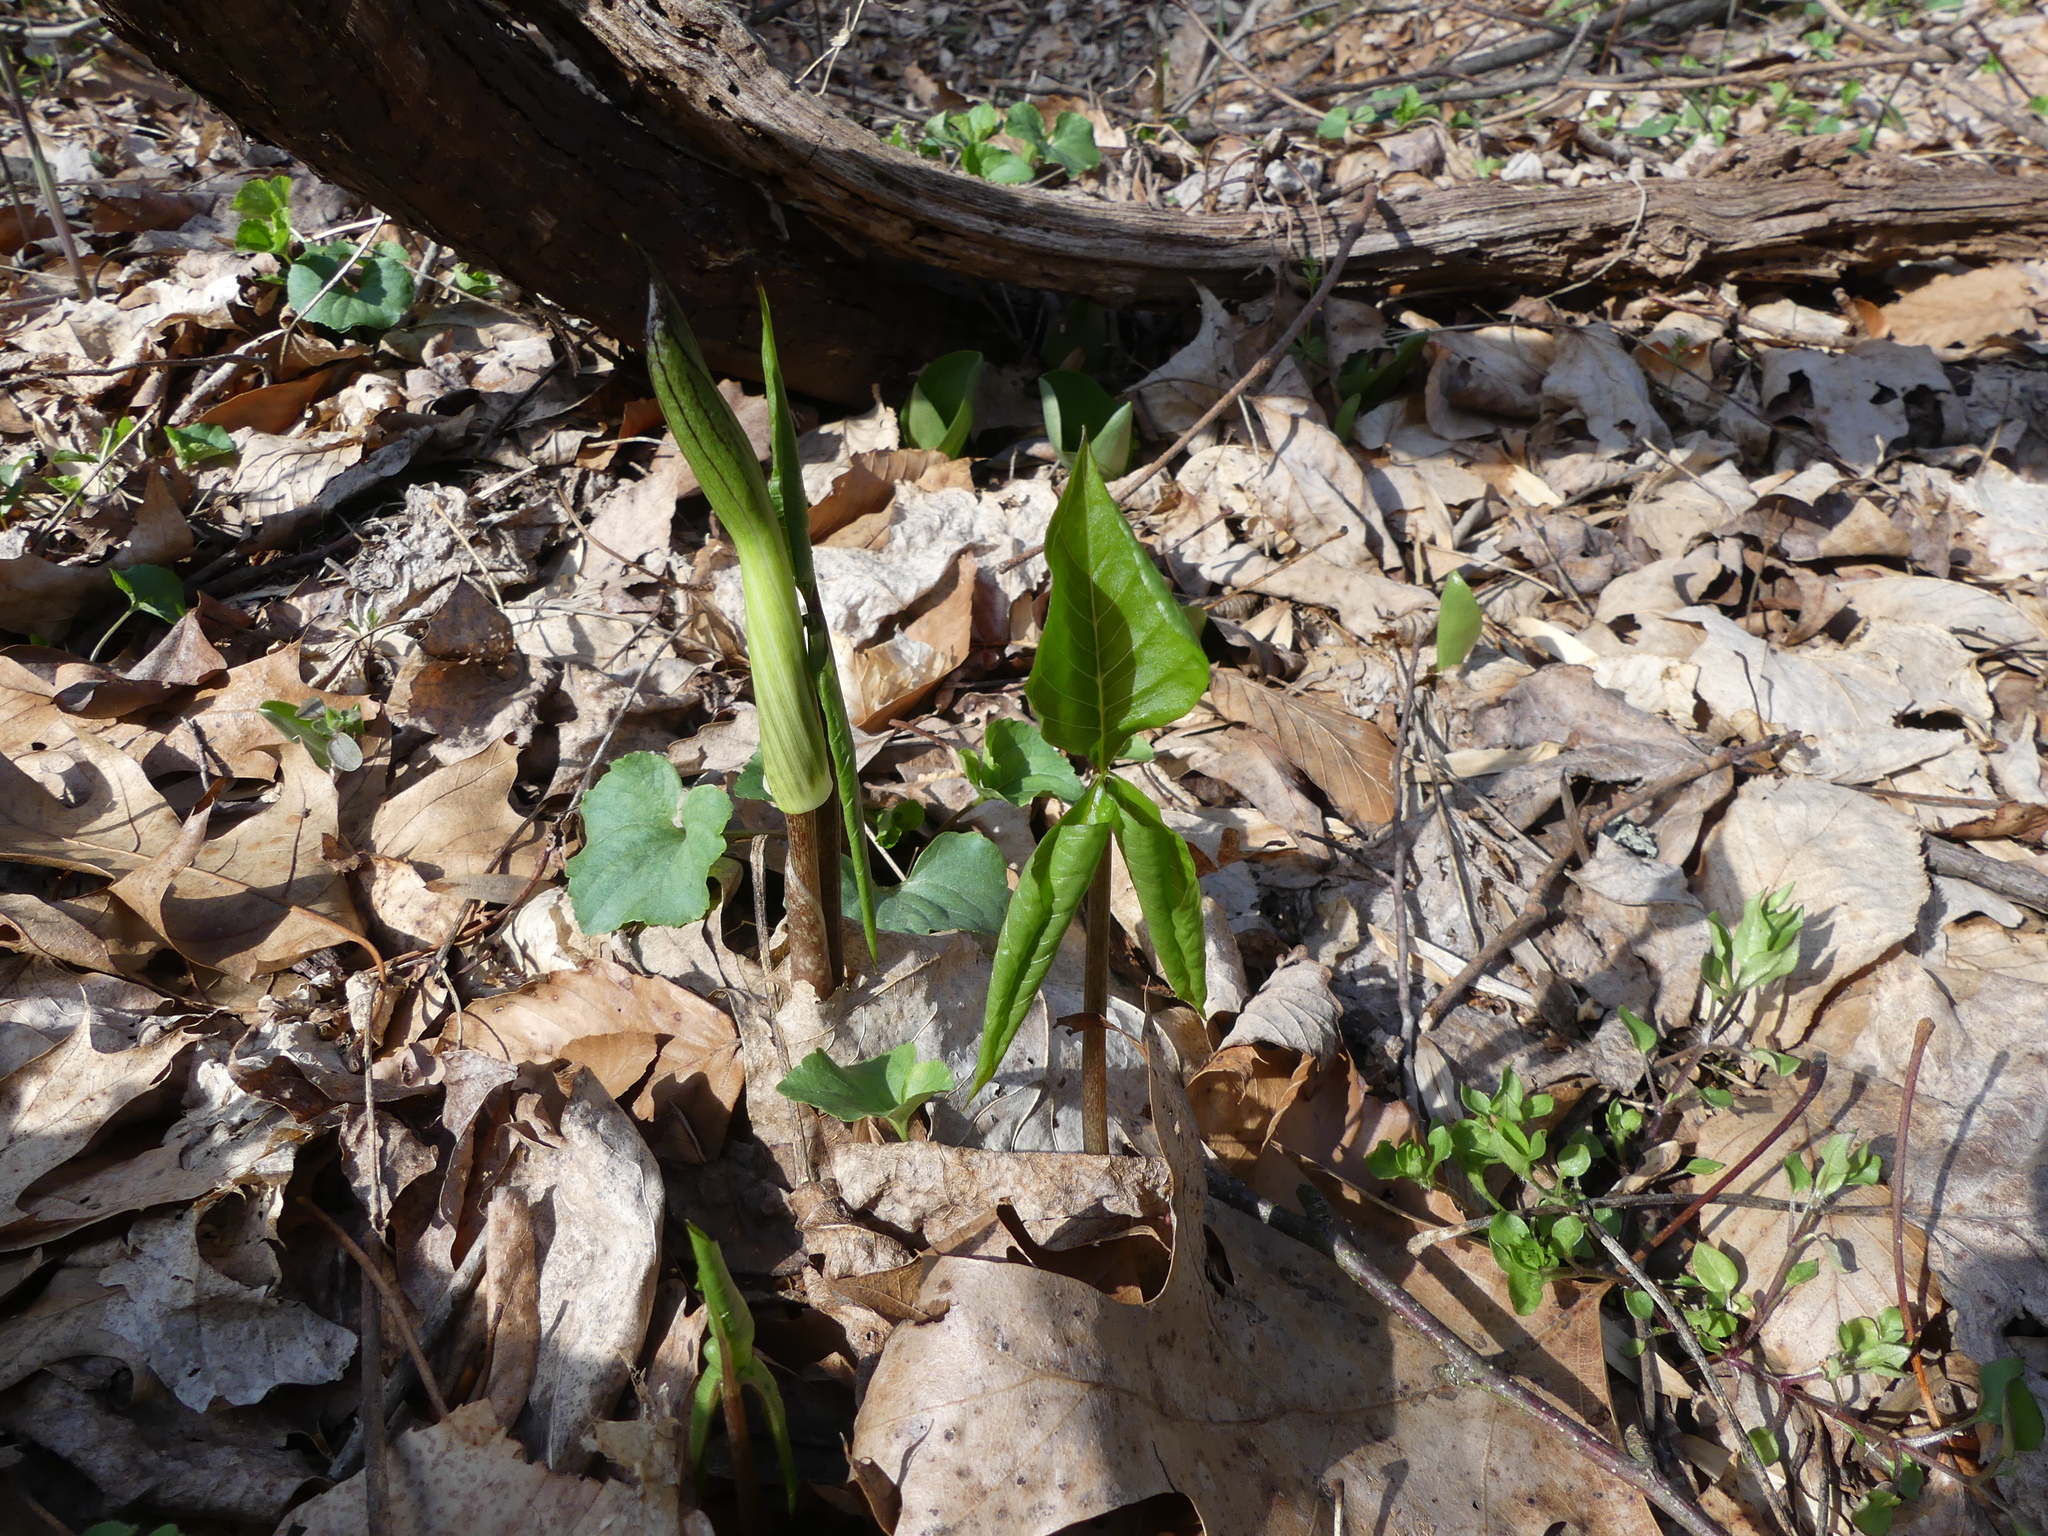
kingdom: Plantae
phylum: Tracheophyta
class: Liliopsida
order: Alismatales
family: Araceae
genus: Arisaema
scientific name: Arisaema triphyllum
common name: Jack-in-the-pulpit
